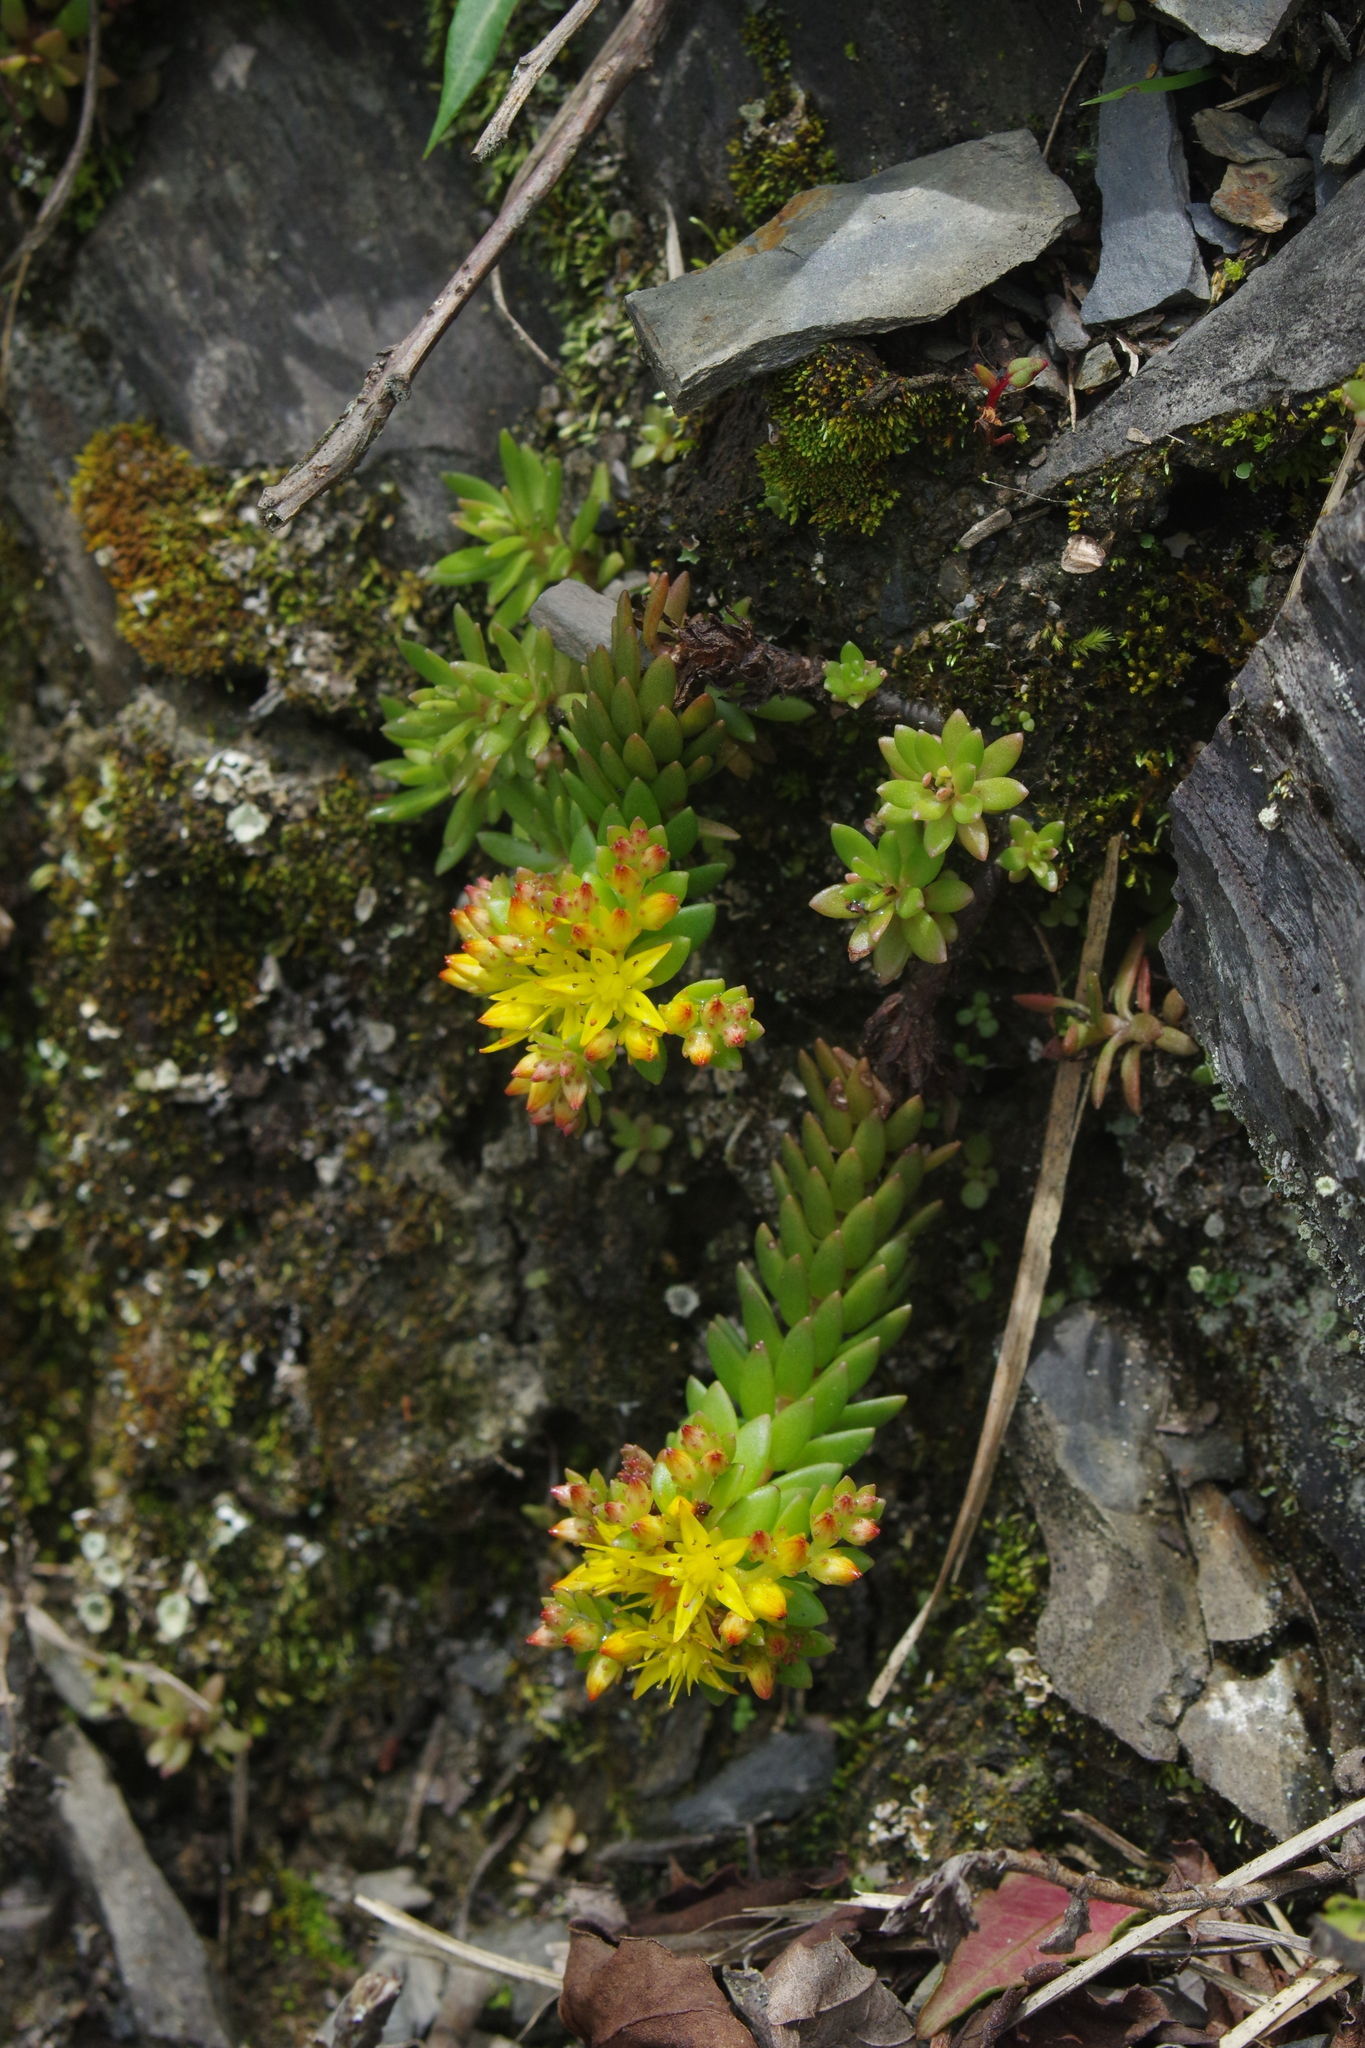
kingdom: Plantae
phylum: Tracheophyta
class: Magnoliopsida
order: Saxifragales
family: Crassulaceae
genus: Sedum
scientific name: Sedum morrisonense
